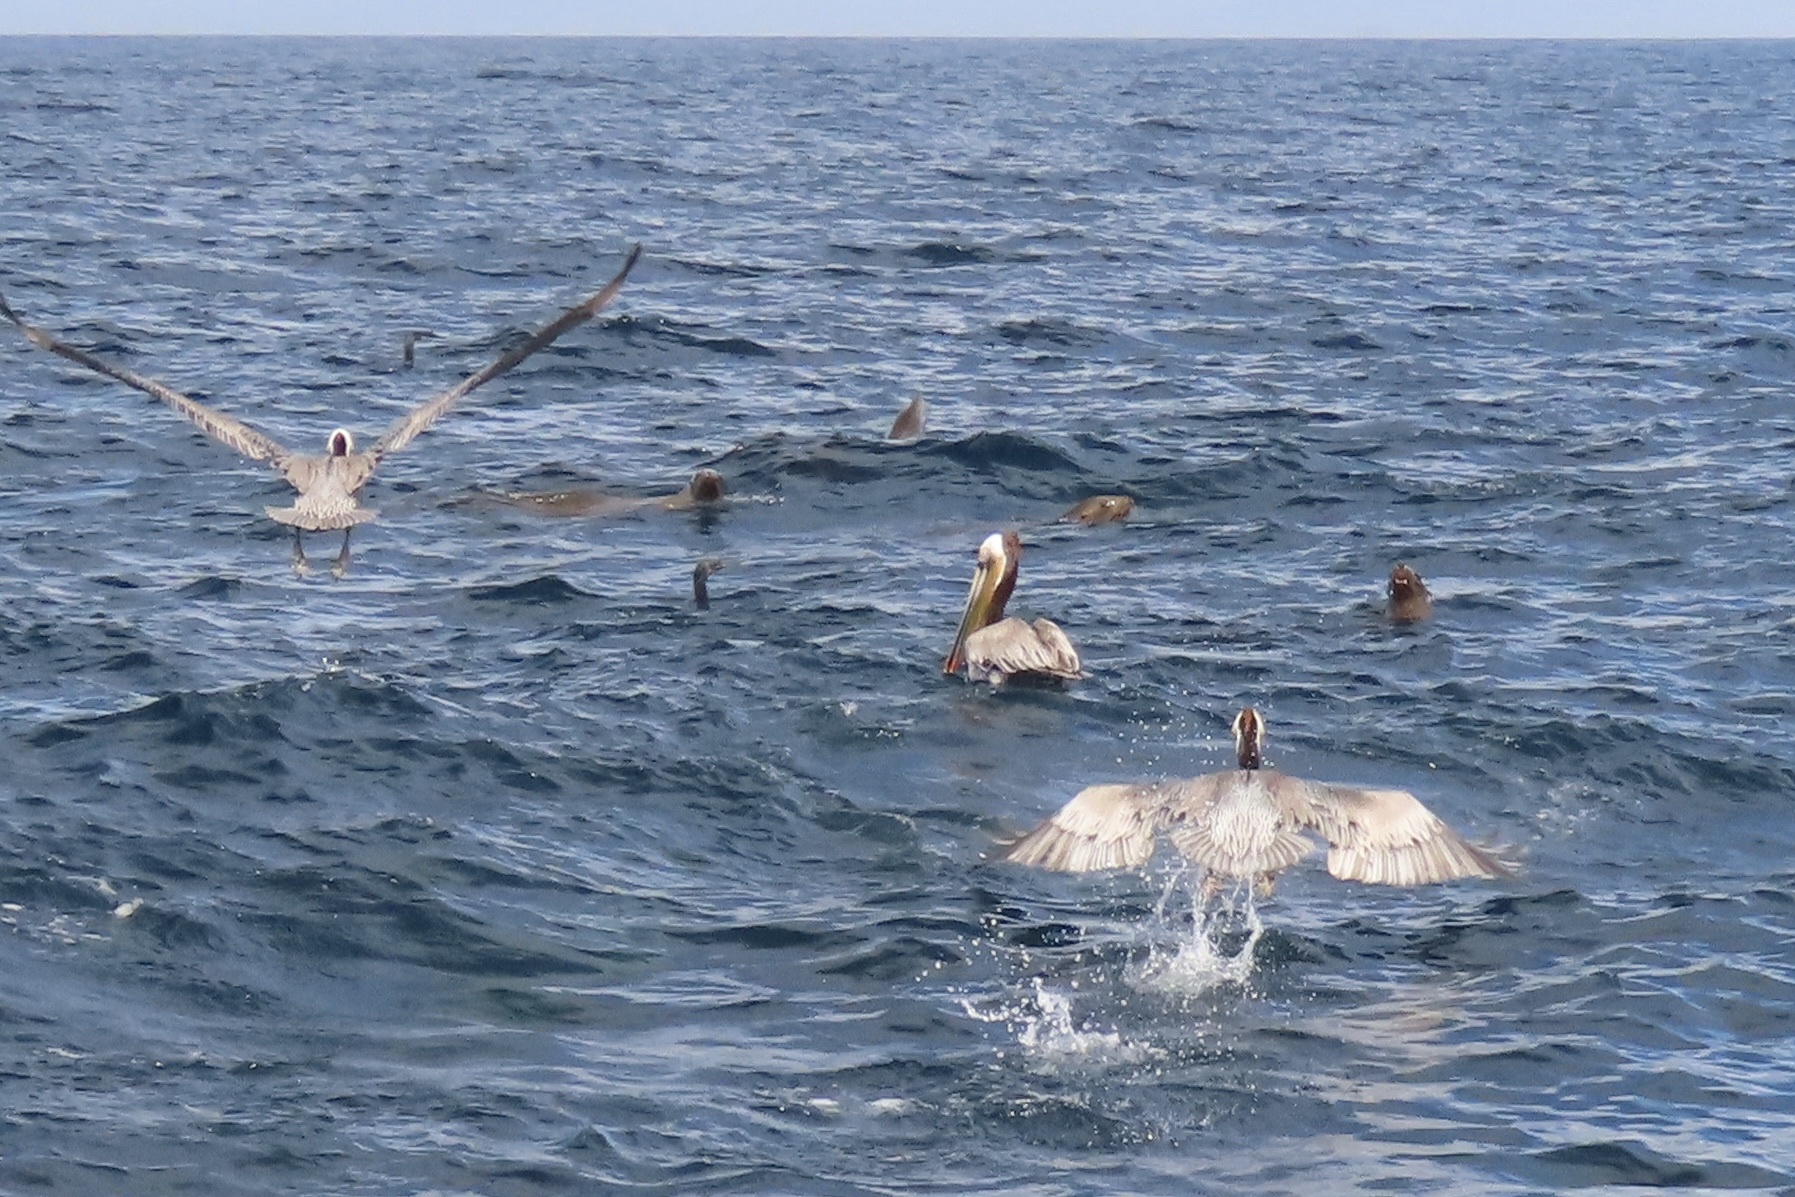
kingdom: Animalia
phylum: Chordata
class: Aves
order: Pelecaniformes
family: Pelecanidae
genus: Pelecanus
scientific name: Pelecanus occidentalis
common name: Brown pelican
